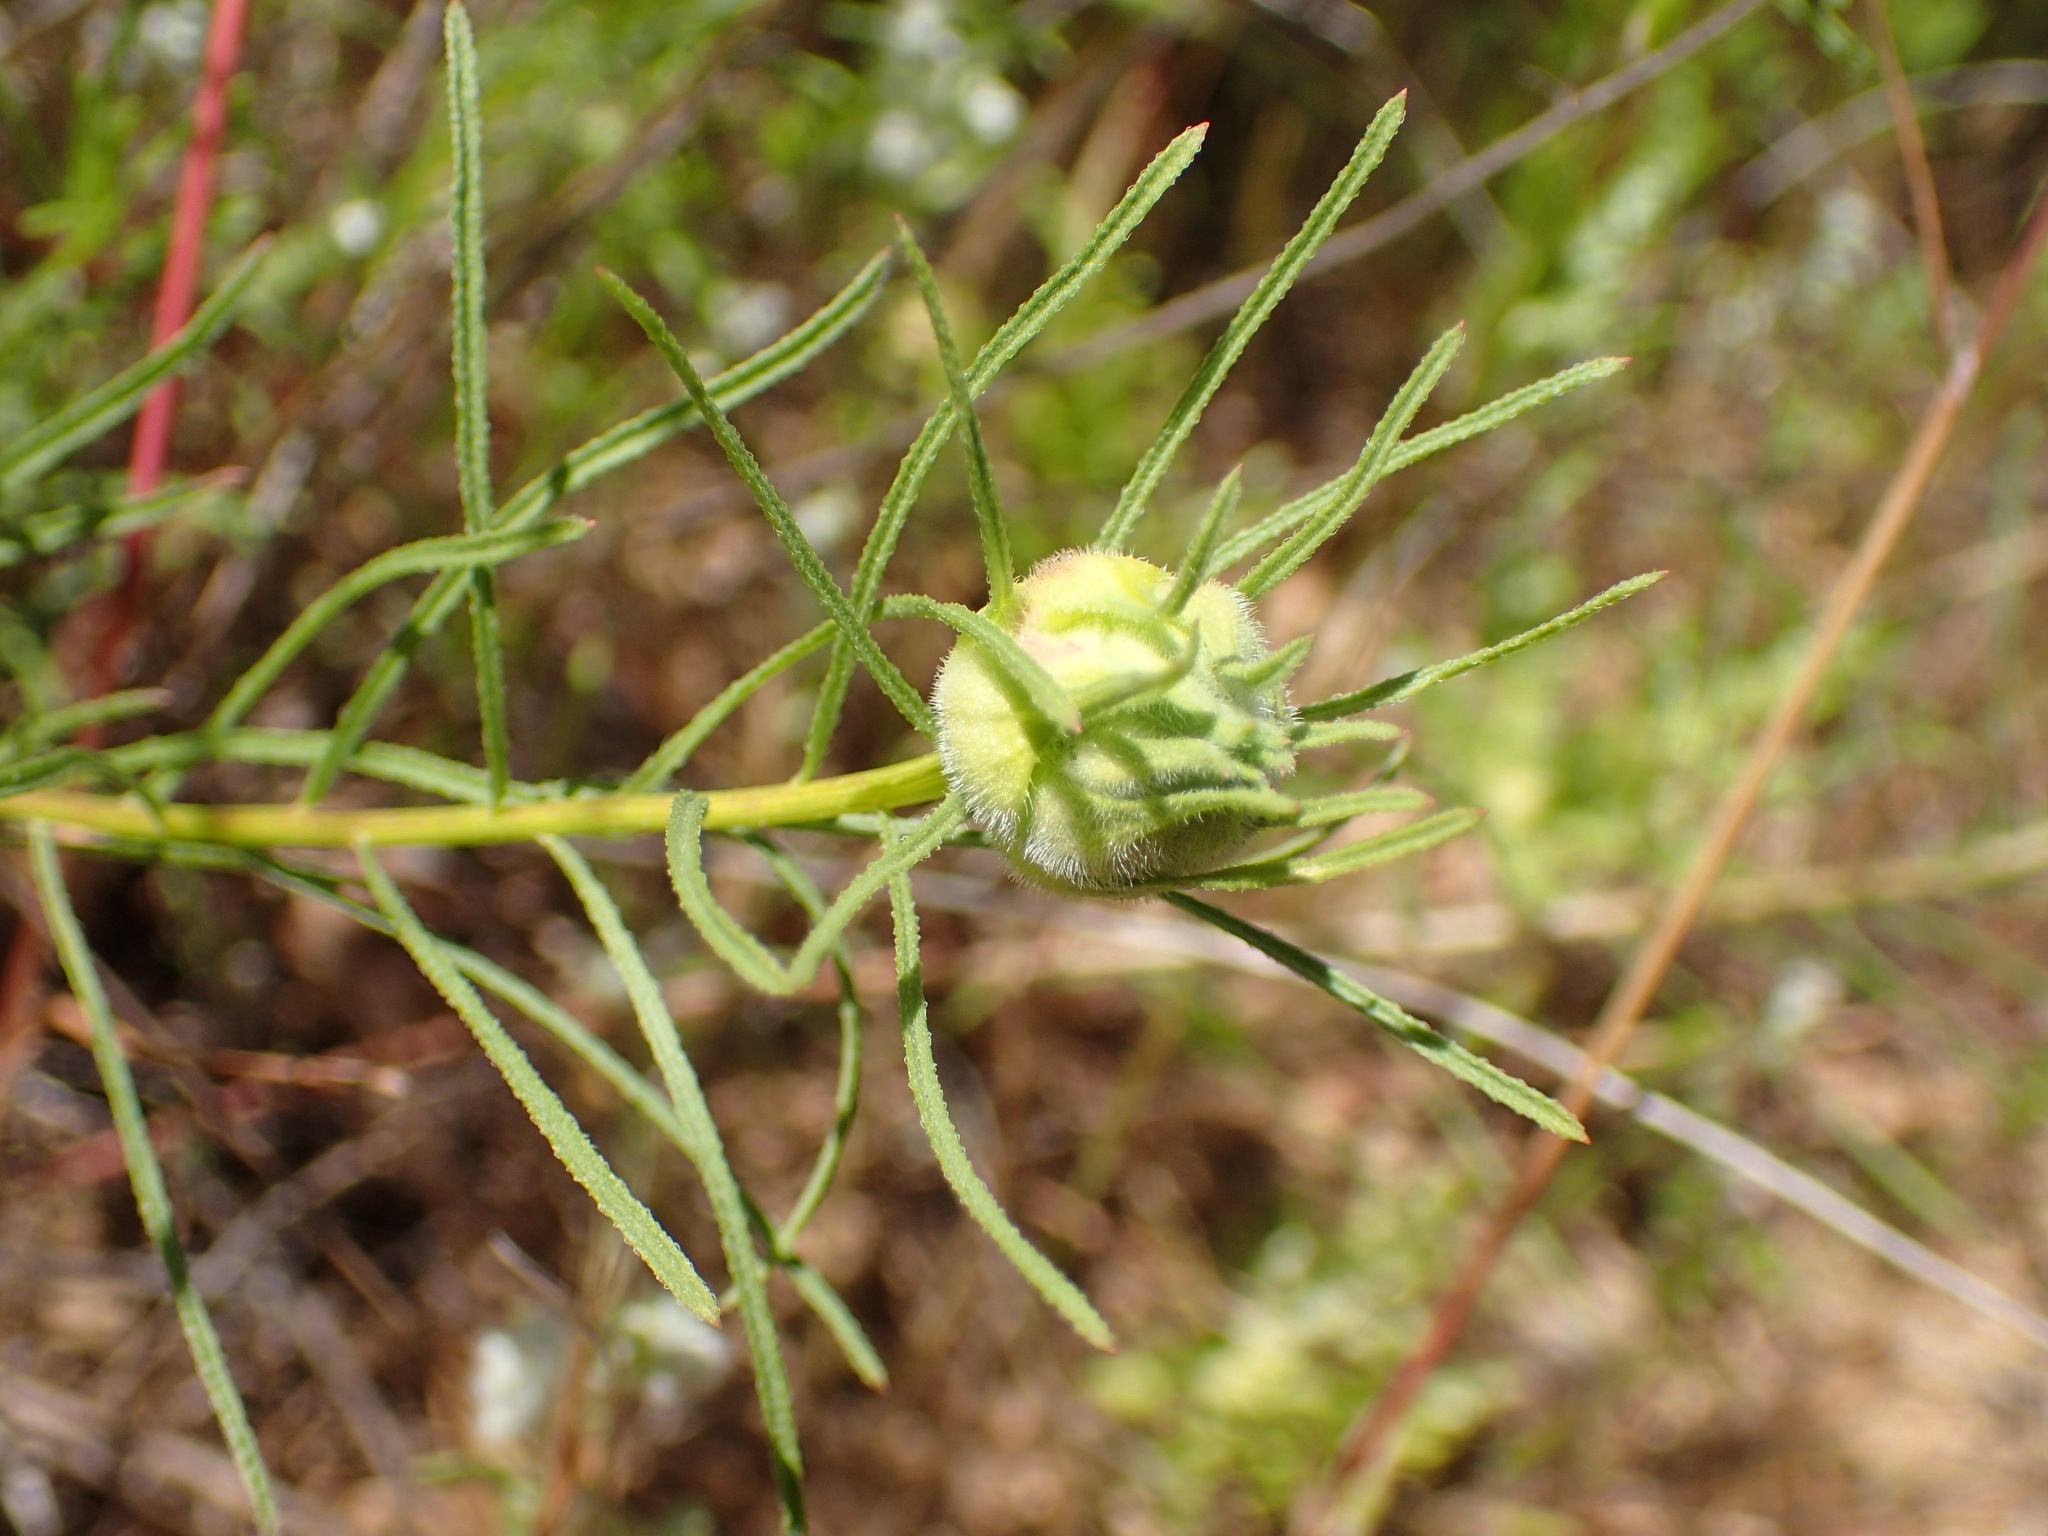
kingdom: Animalia
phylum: Arthropoda
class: Insecta
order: Diptera
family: Cecidomyiidae
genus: Rhopalomyia
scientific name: Rhopalomyia erigerontis
